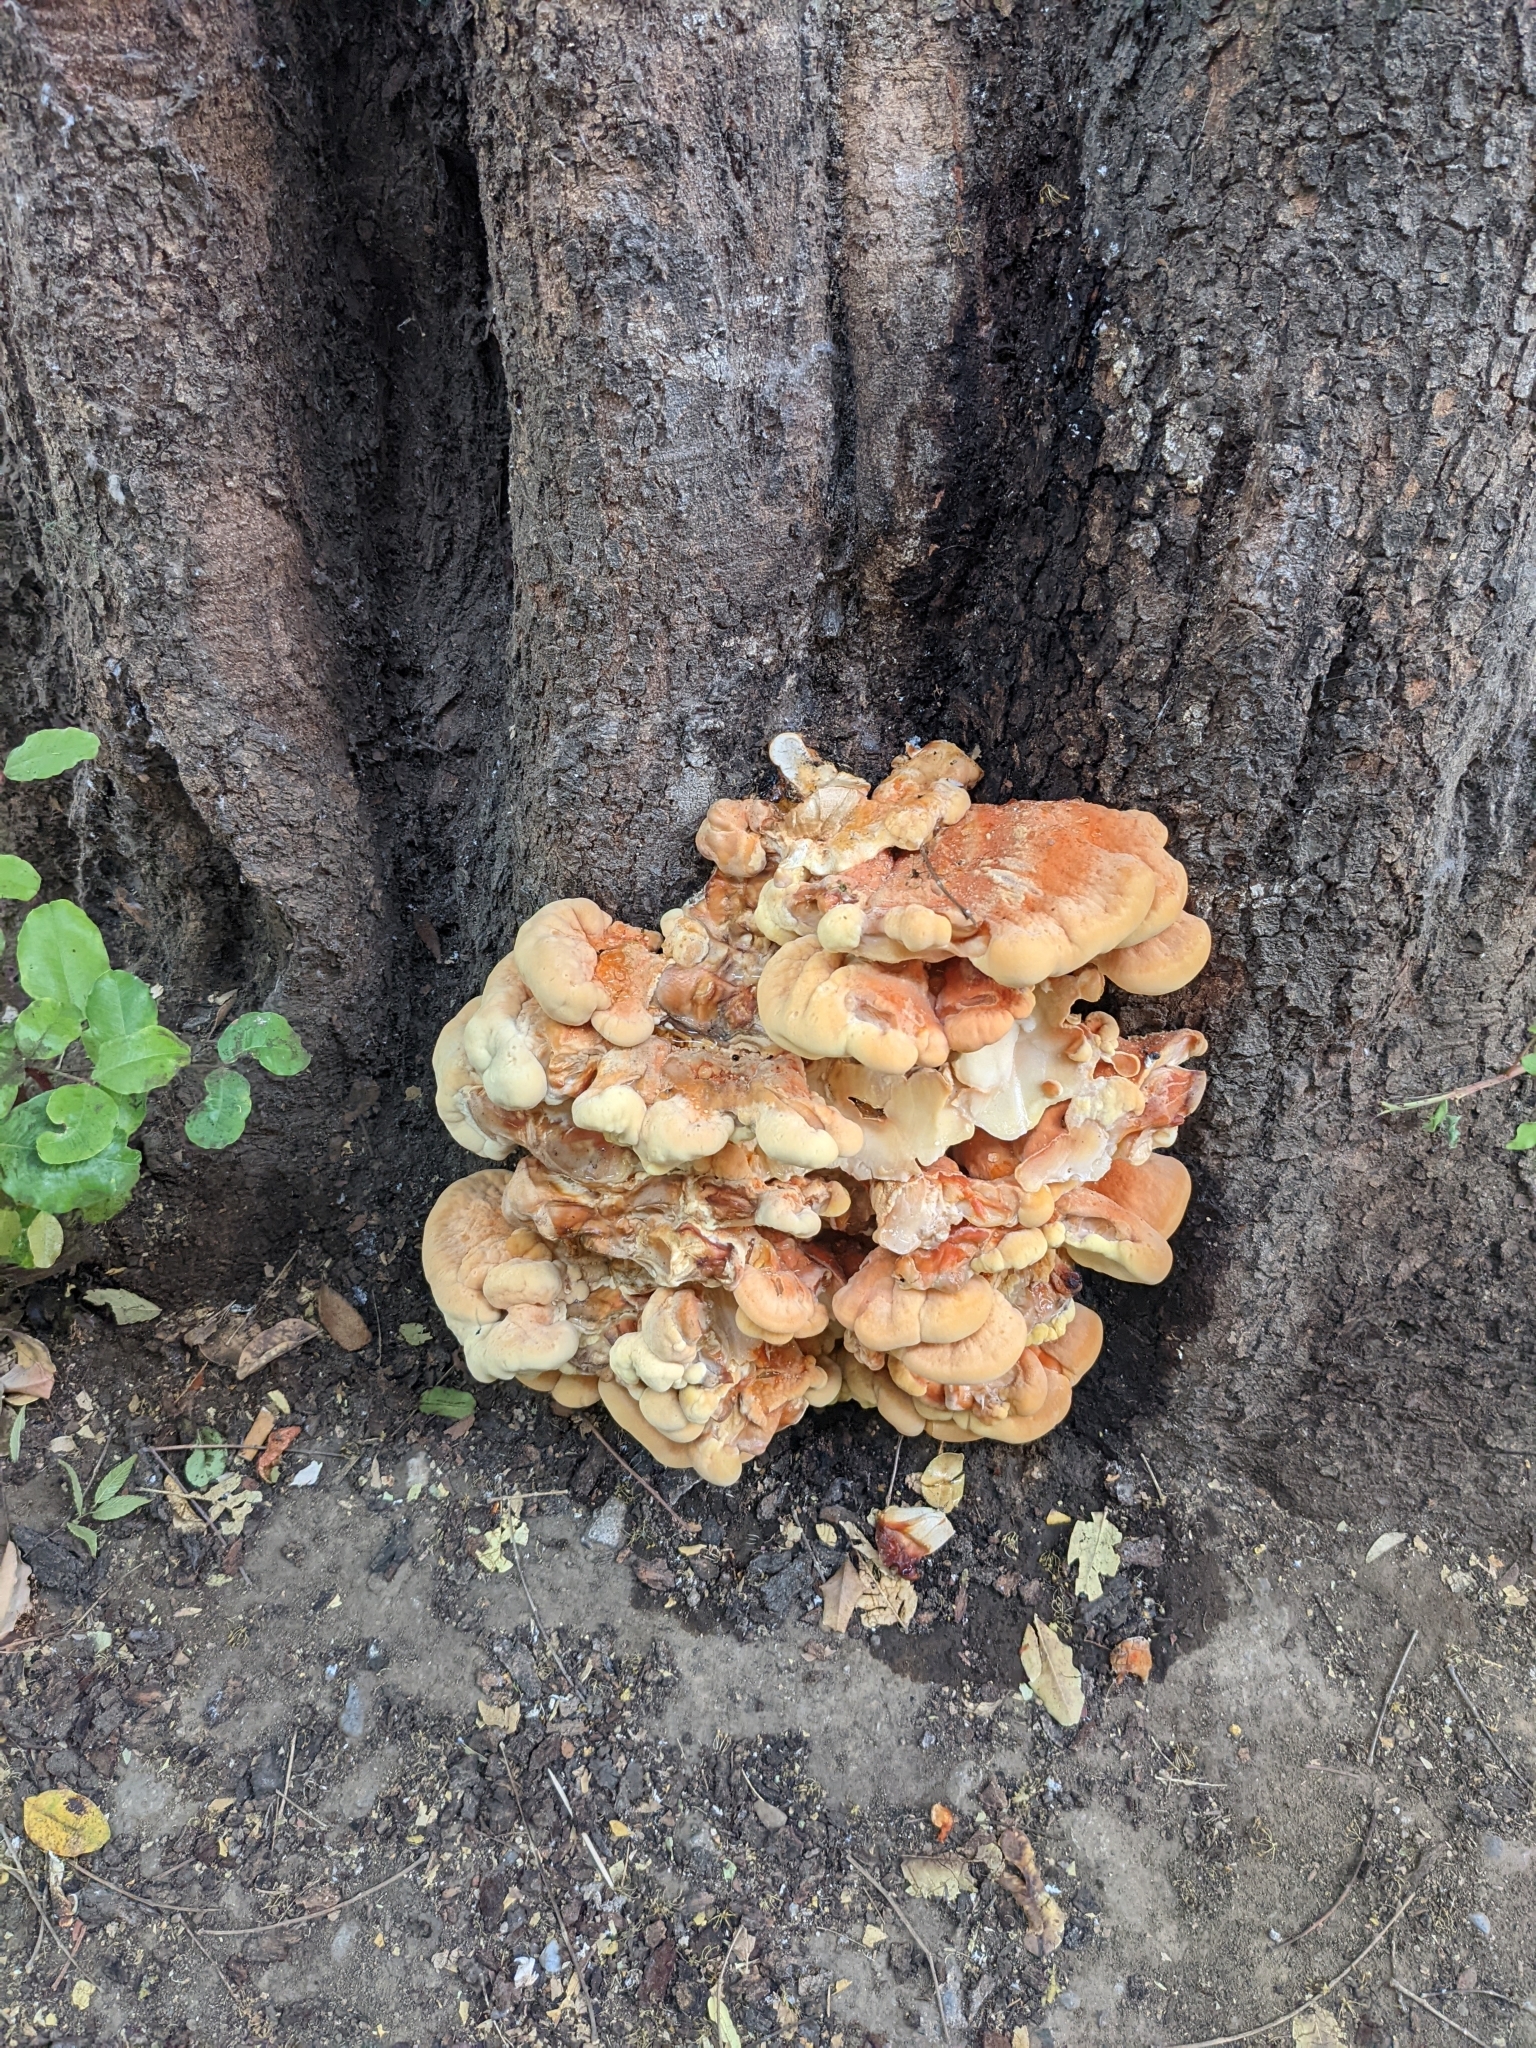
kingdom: Fungi
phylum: Basidiomycota
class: Agaricomycetes
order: Polyporales
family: Laetiporaceae
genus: Laetiporus
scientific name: Laetiporus gilbertsonii
